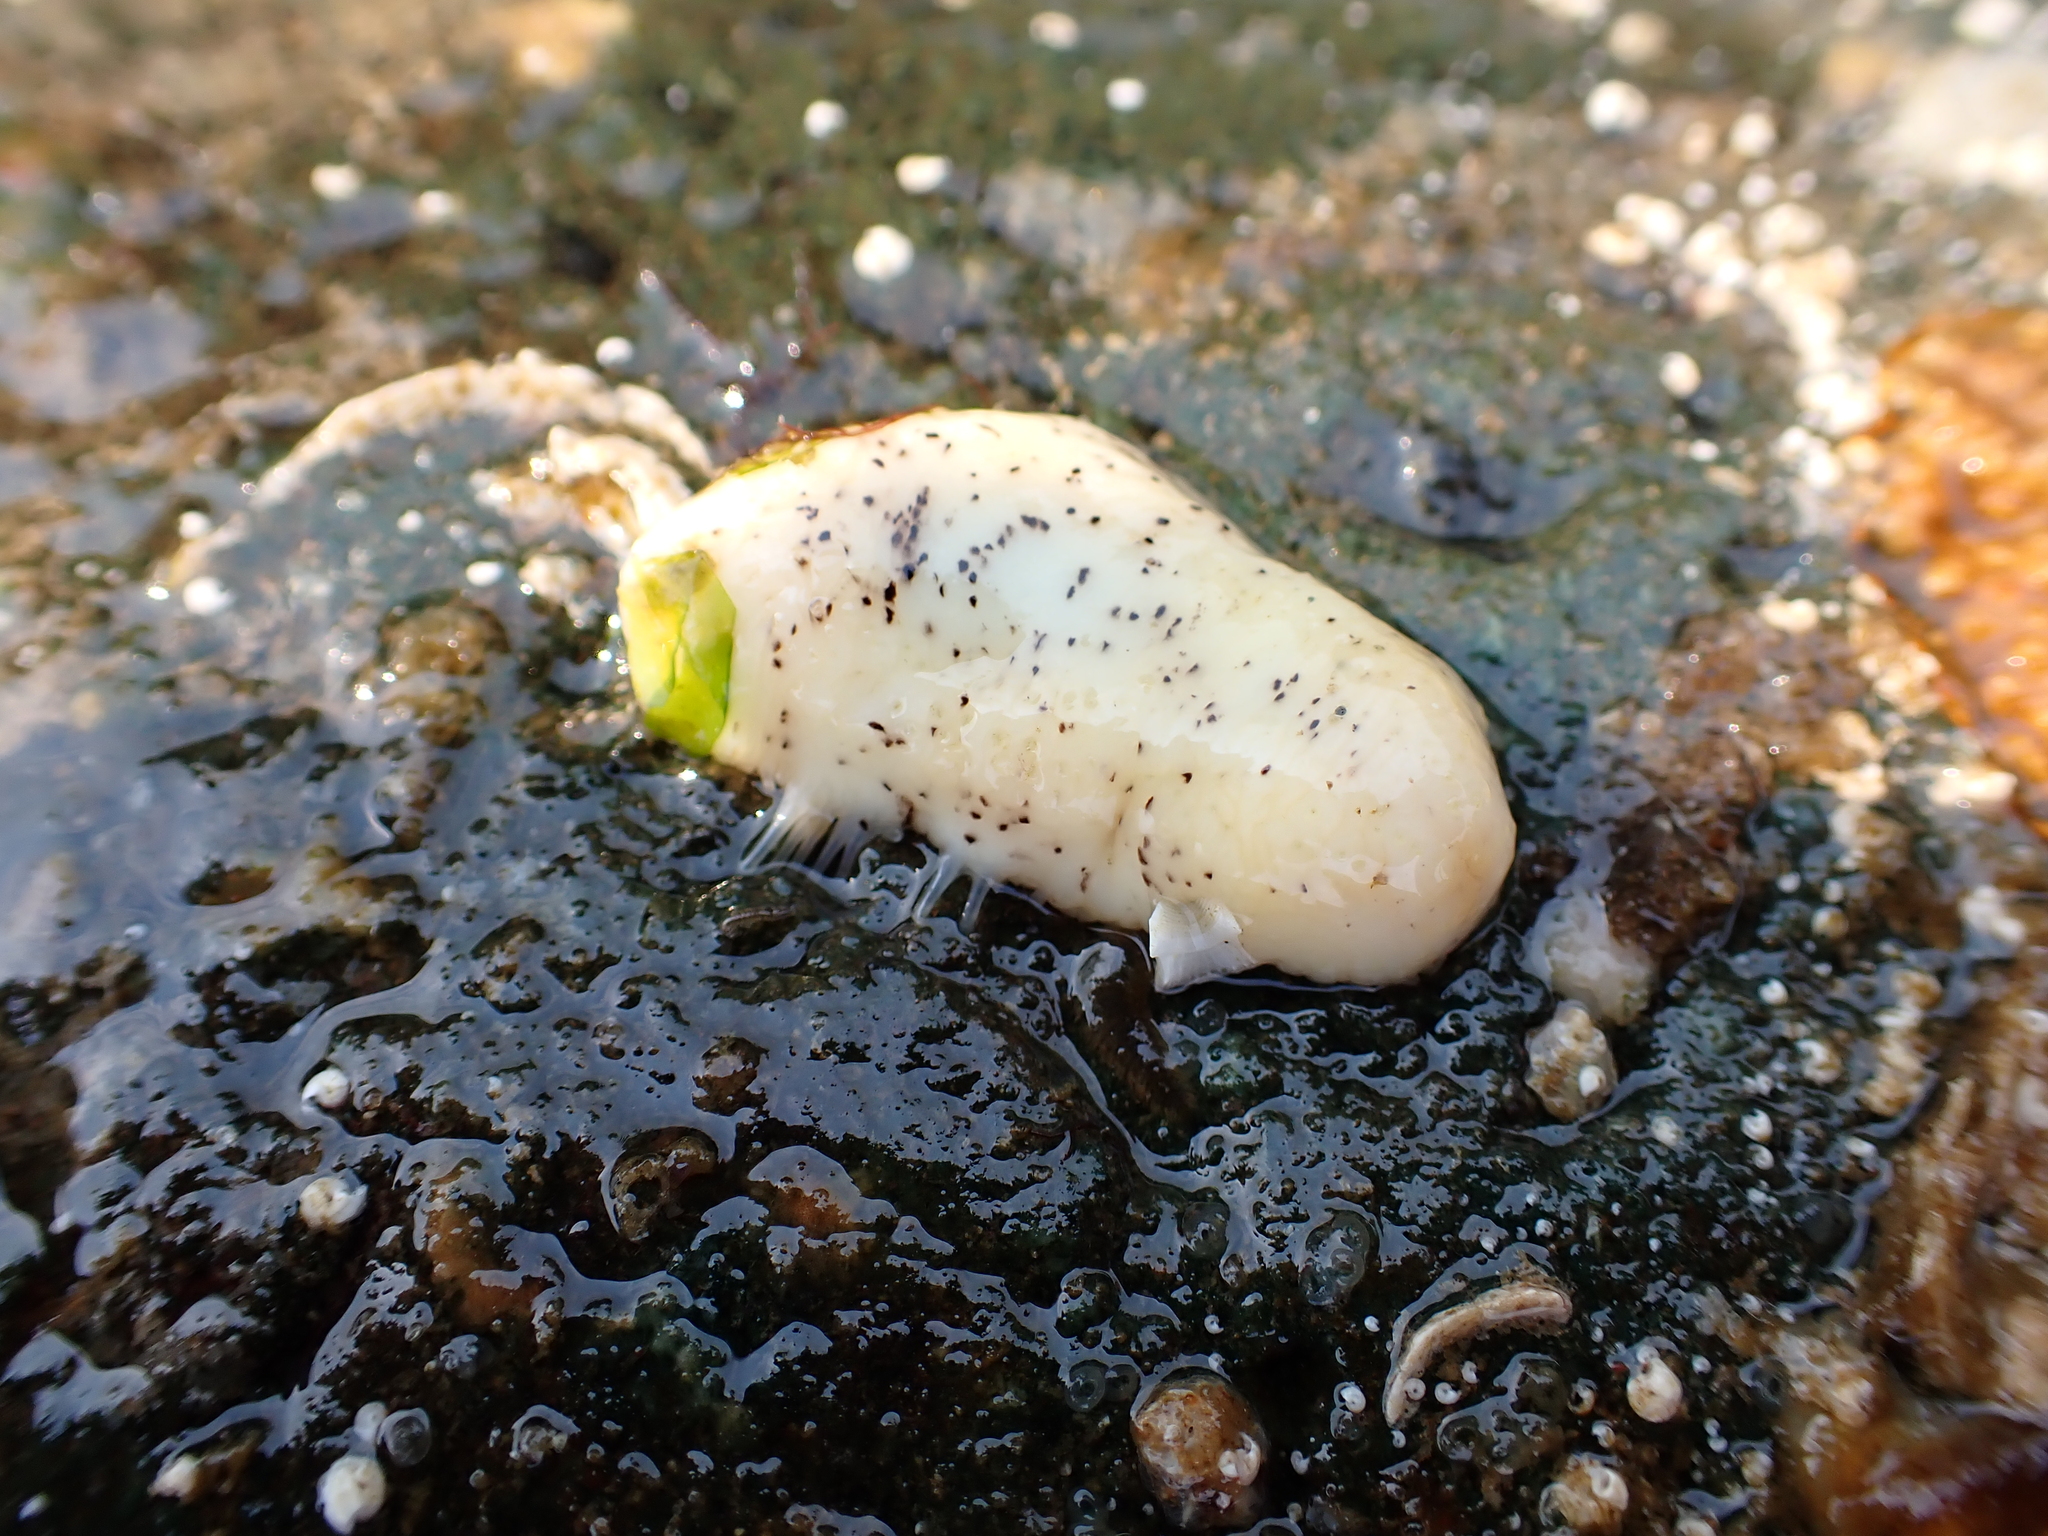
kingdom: Animalia
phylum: Echinodermata
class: Holothuroidea
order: Dendrochirotida
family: Cucumariidae
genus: Cucumaria
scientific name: Cucumaria piperata
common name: Peppered sea cucumber
